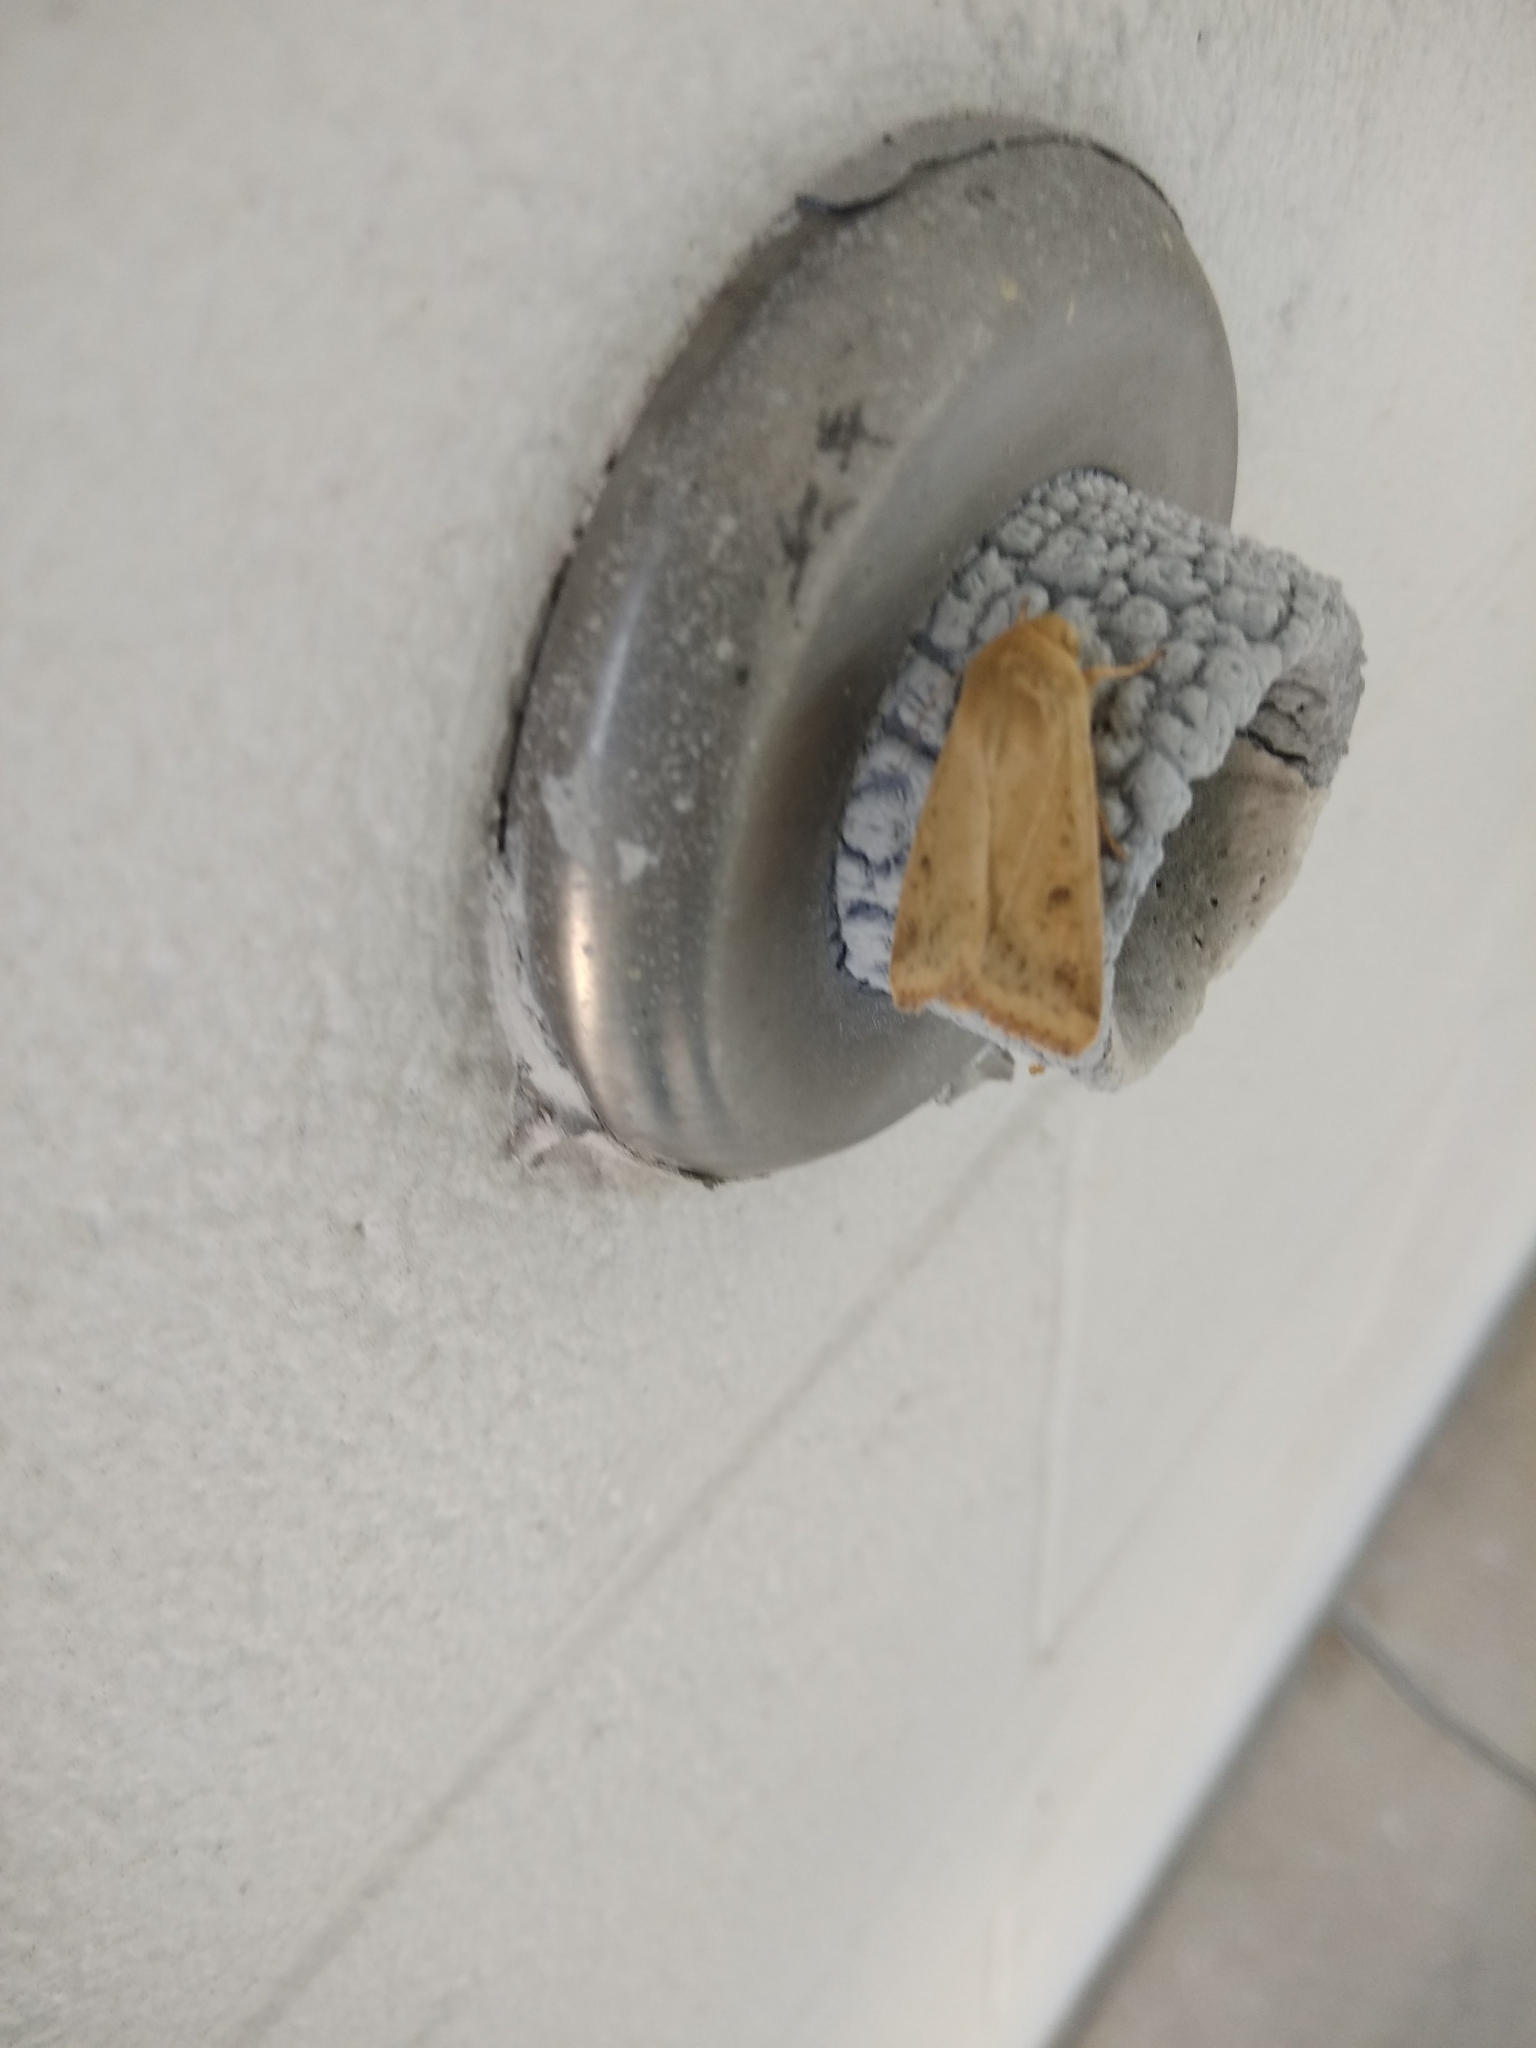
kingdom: Animalia
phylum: Arthropoda
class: Insecta
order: Lepidoptera
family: Noctuidae
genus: Helicoverpa
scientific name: Helicoverpa zea
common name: Bollworm
